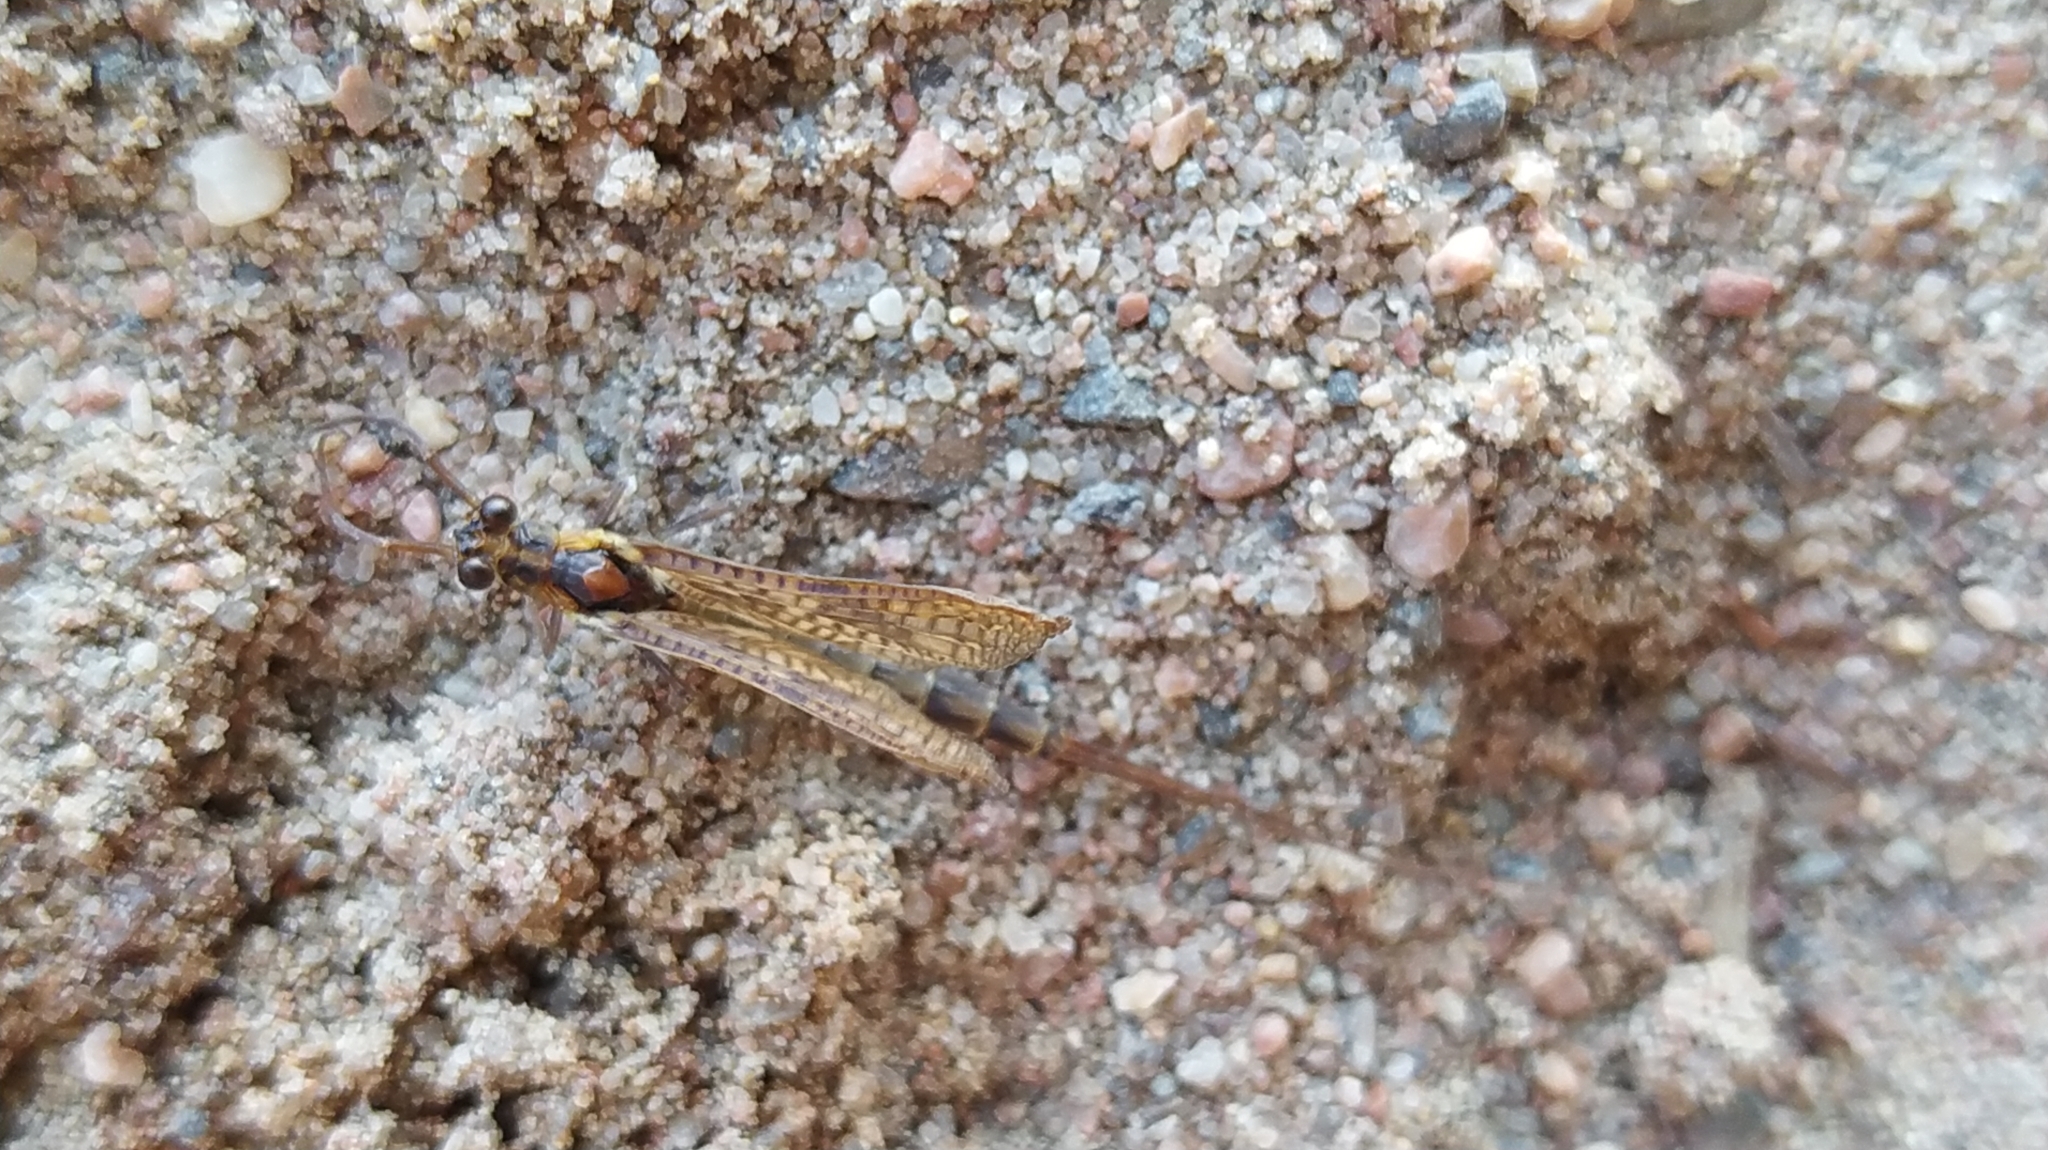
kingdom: Animalia
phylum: Arthropoda
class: Insecta
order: Ephemeroptera
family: Ephemeridae
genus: Ephemera
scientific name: Ephemera vulgata
